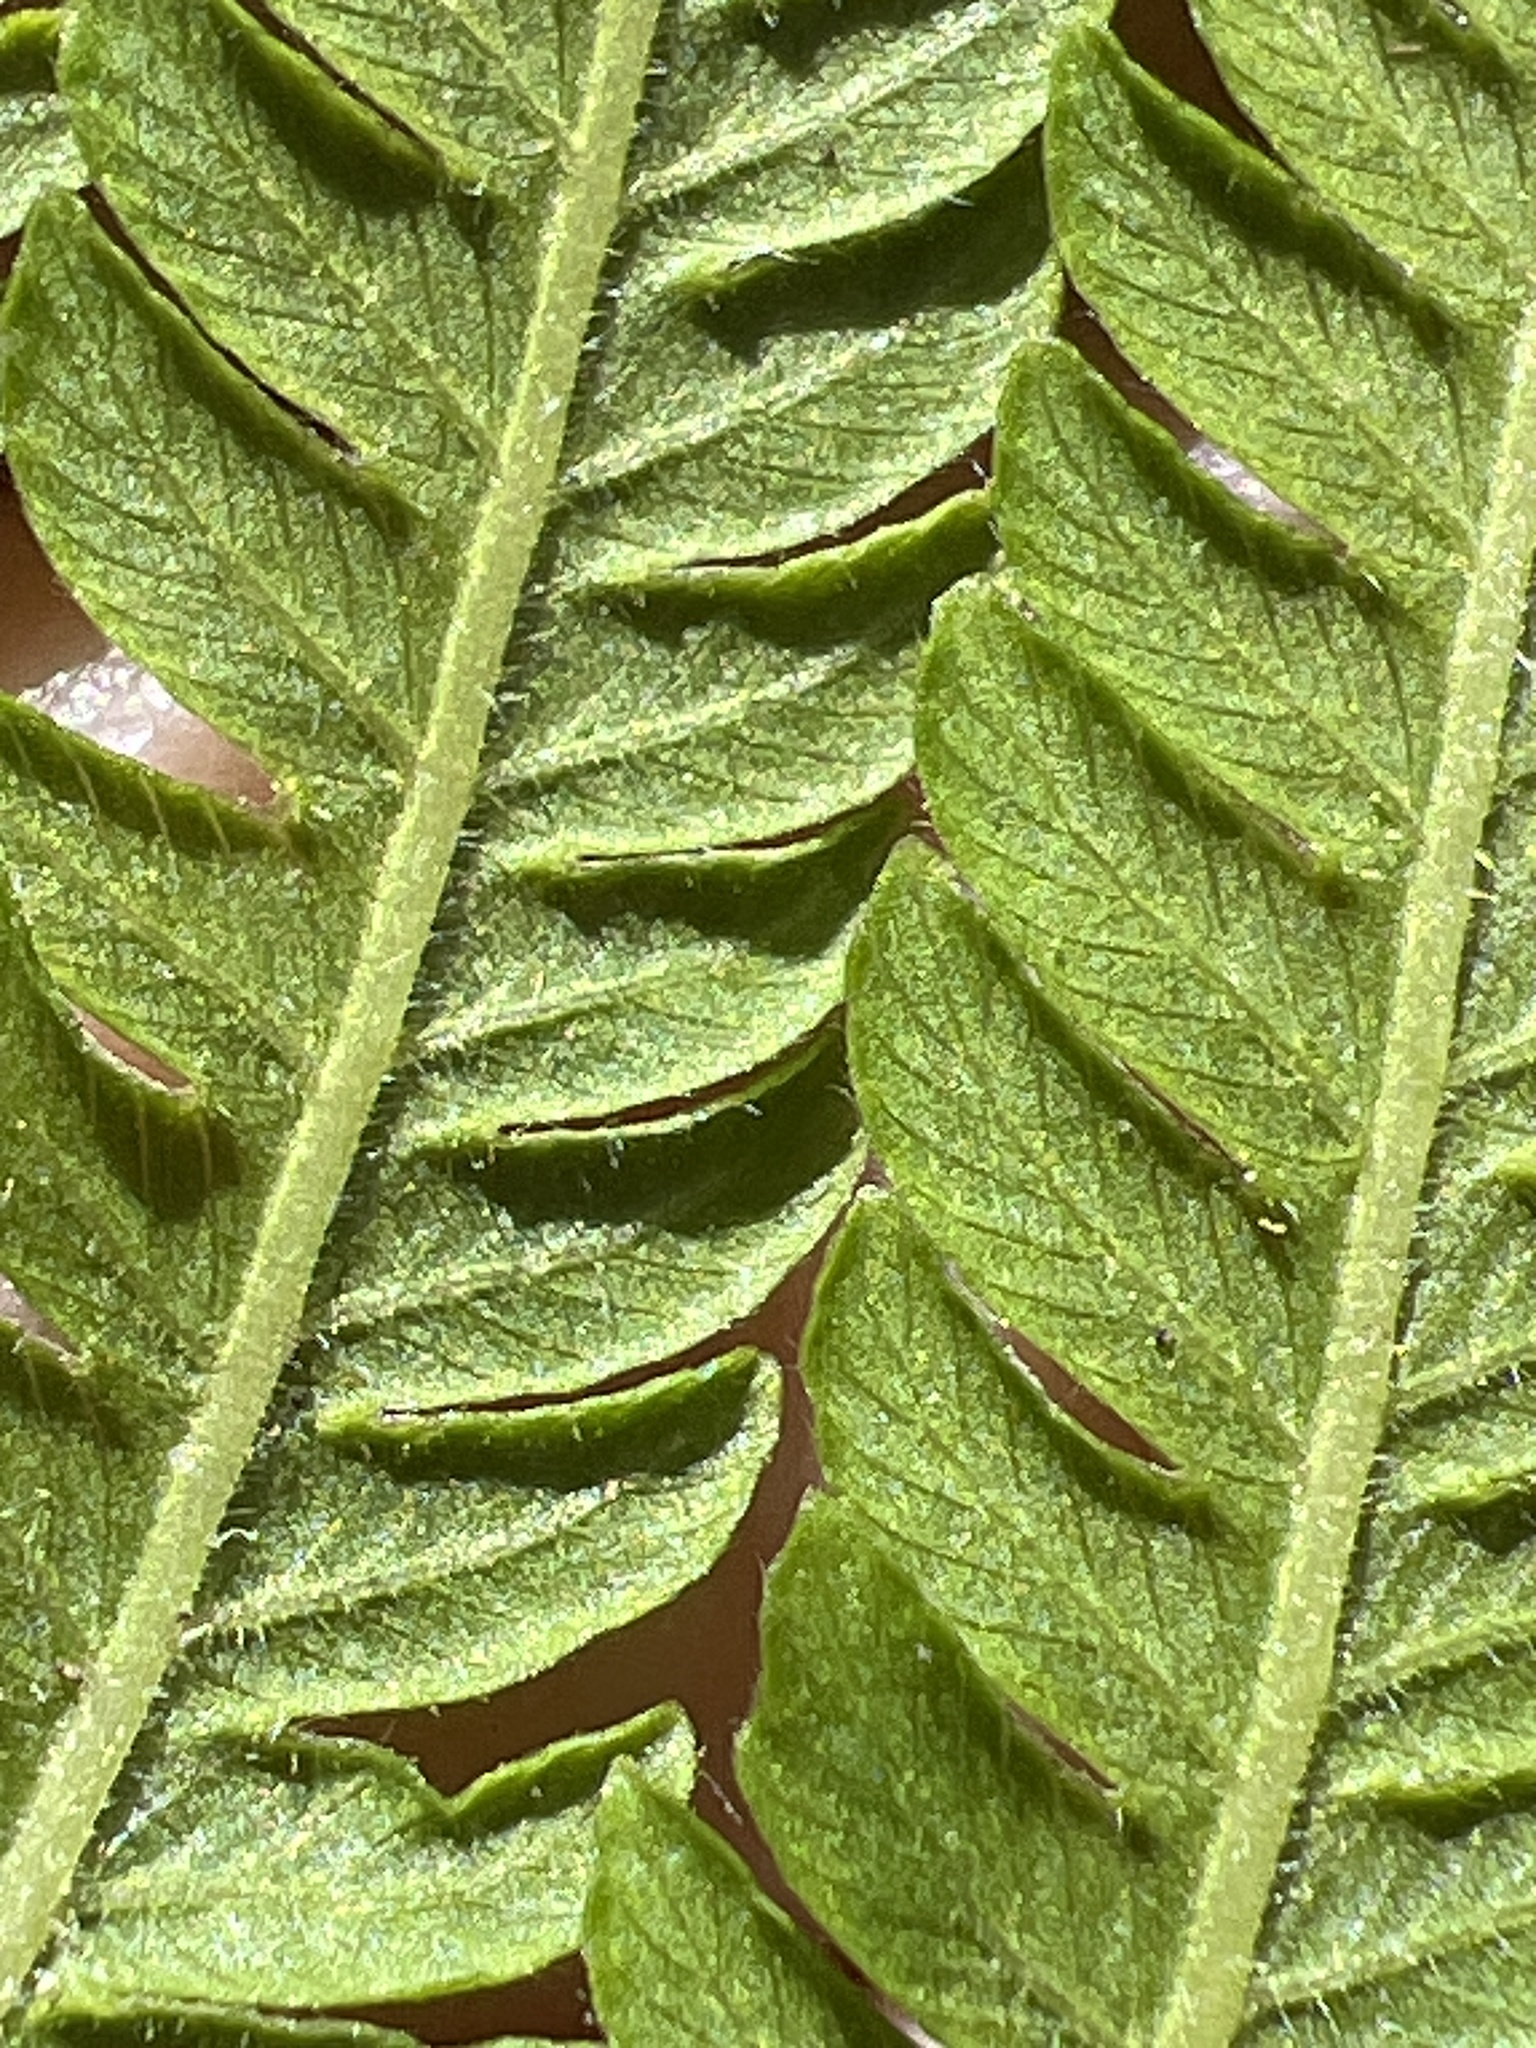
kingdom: Plantae
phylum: Tracheophyta
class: Polypodiopsida
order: Polypodiales
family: Thelypteridaceae
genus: Pelazoneuron
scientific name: Pelazoneuron ovatum
